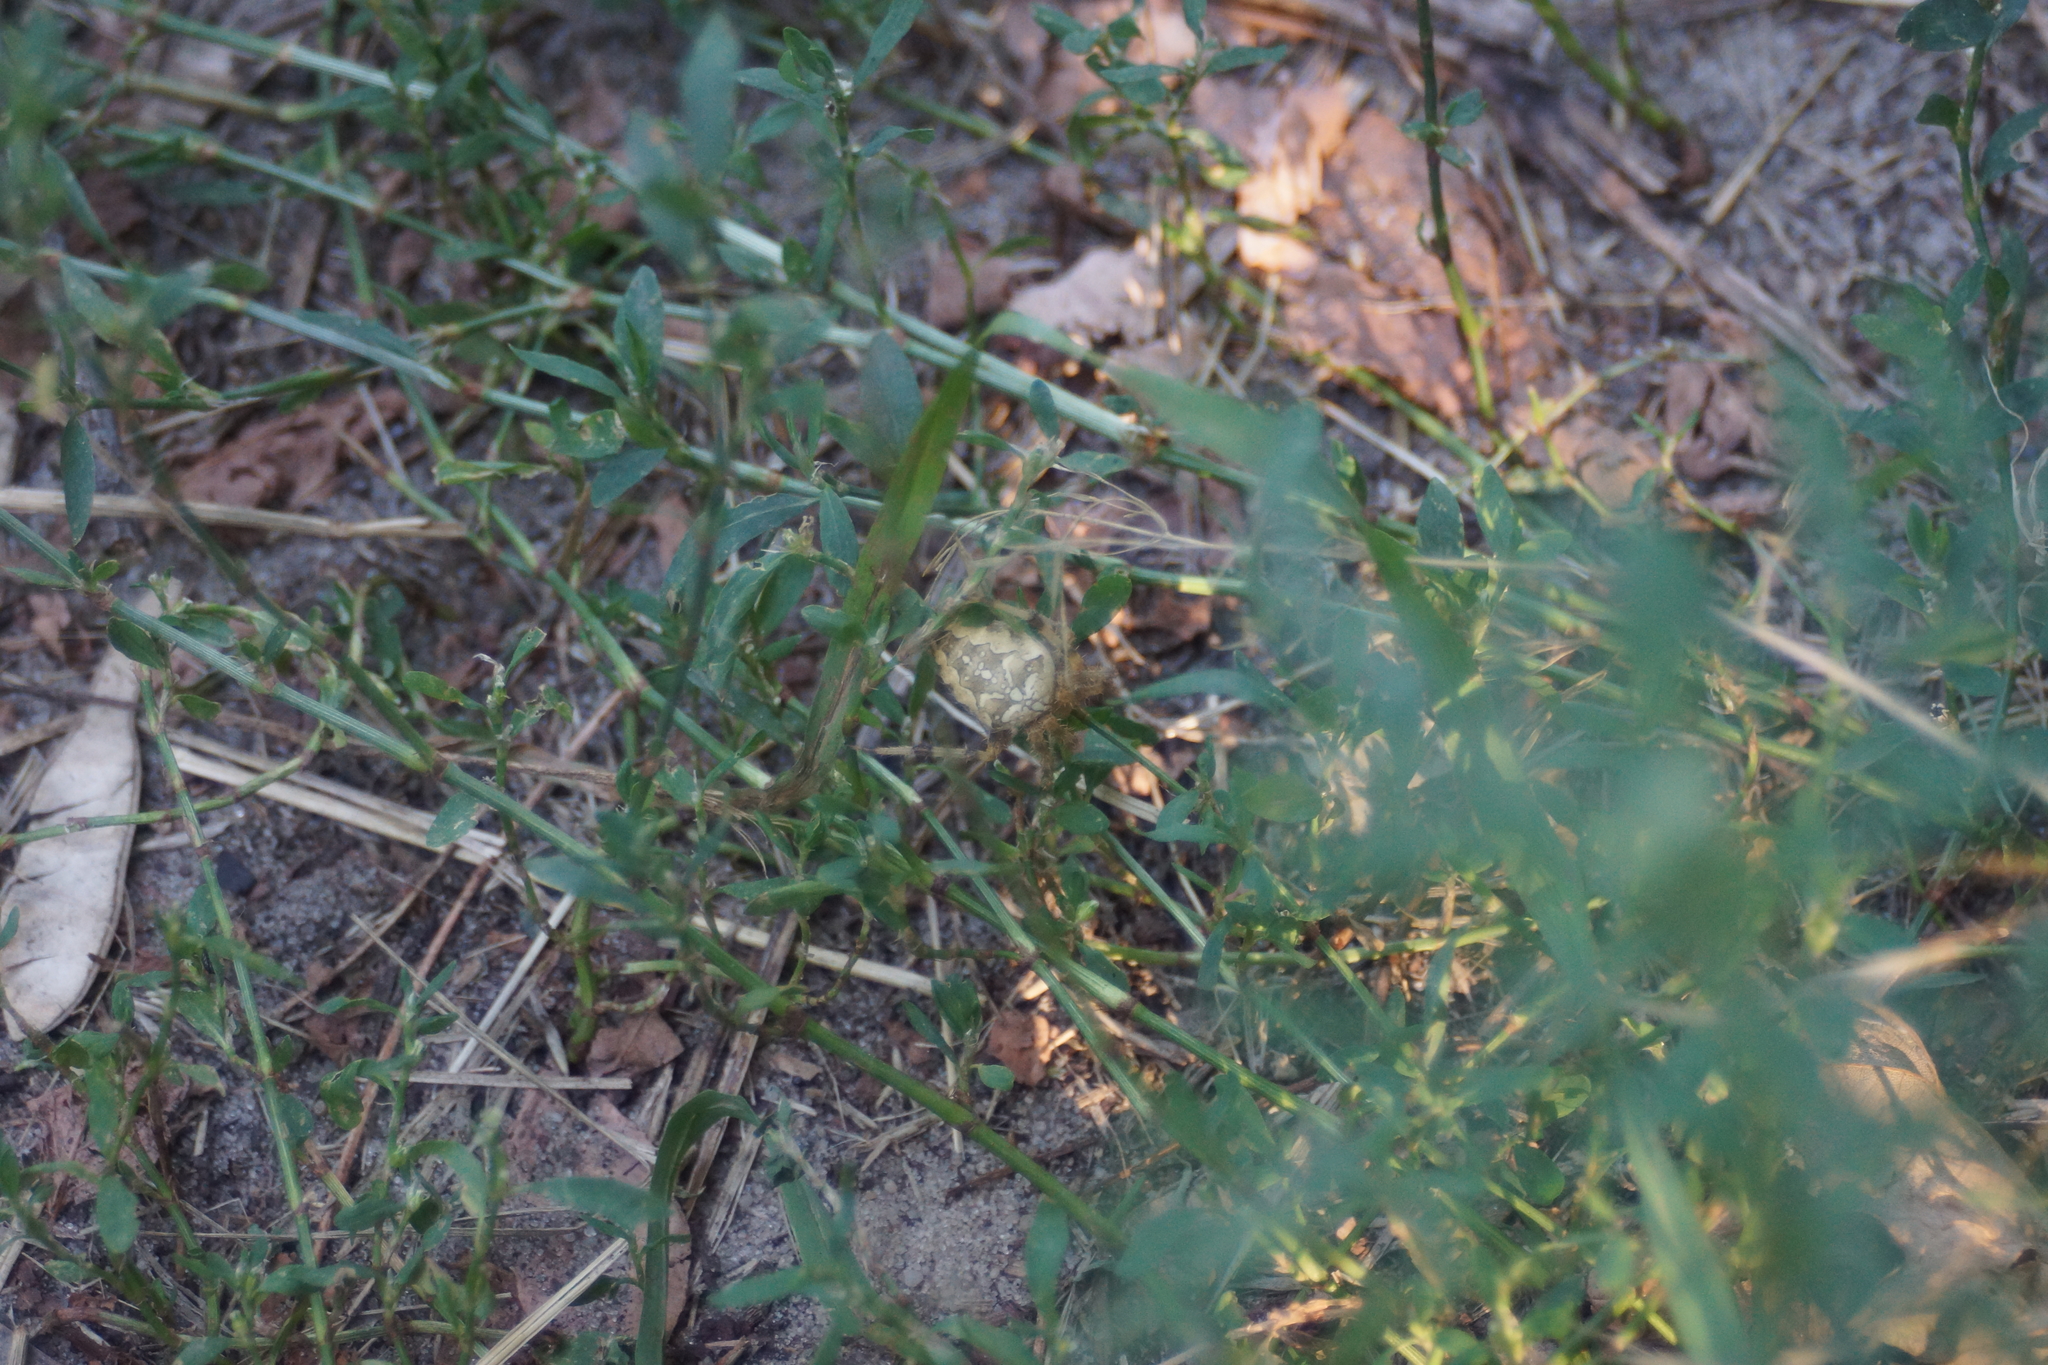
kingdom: Animalia
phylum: Arthropoda
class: Arachnida
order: Araneae
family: Araneidae
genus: Araneus
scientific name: Araneus diadematus
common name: Cross orbweaver
